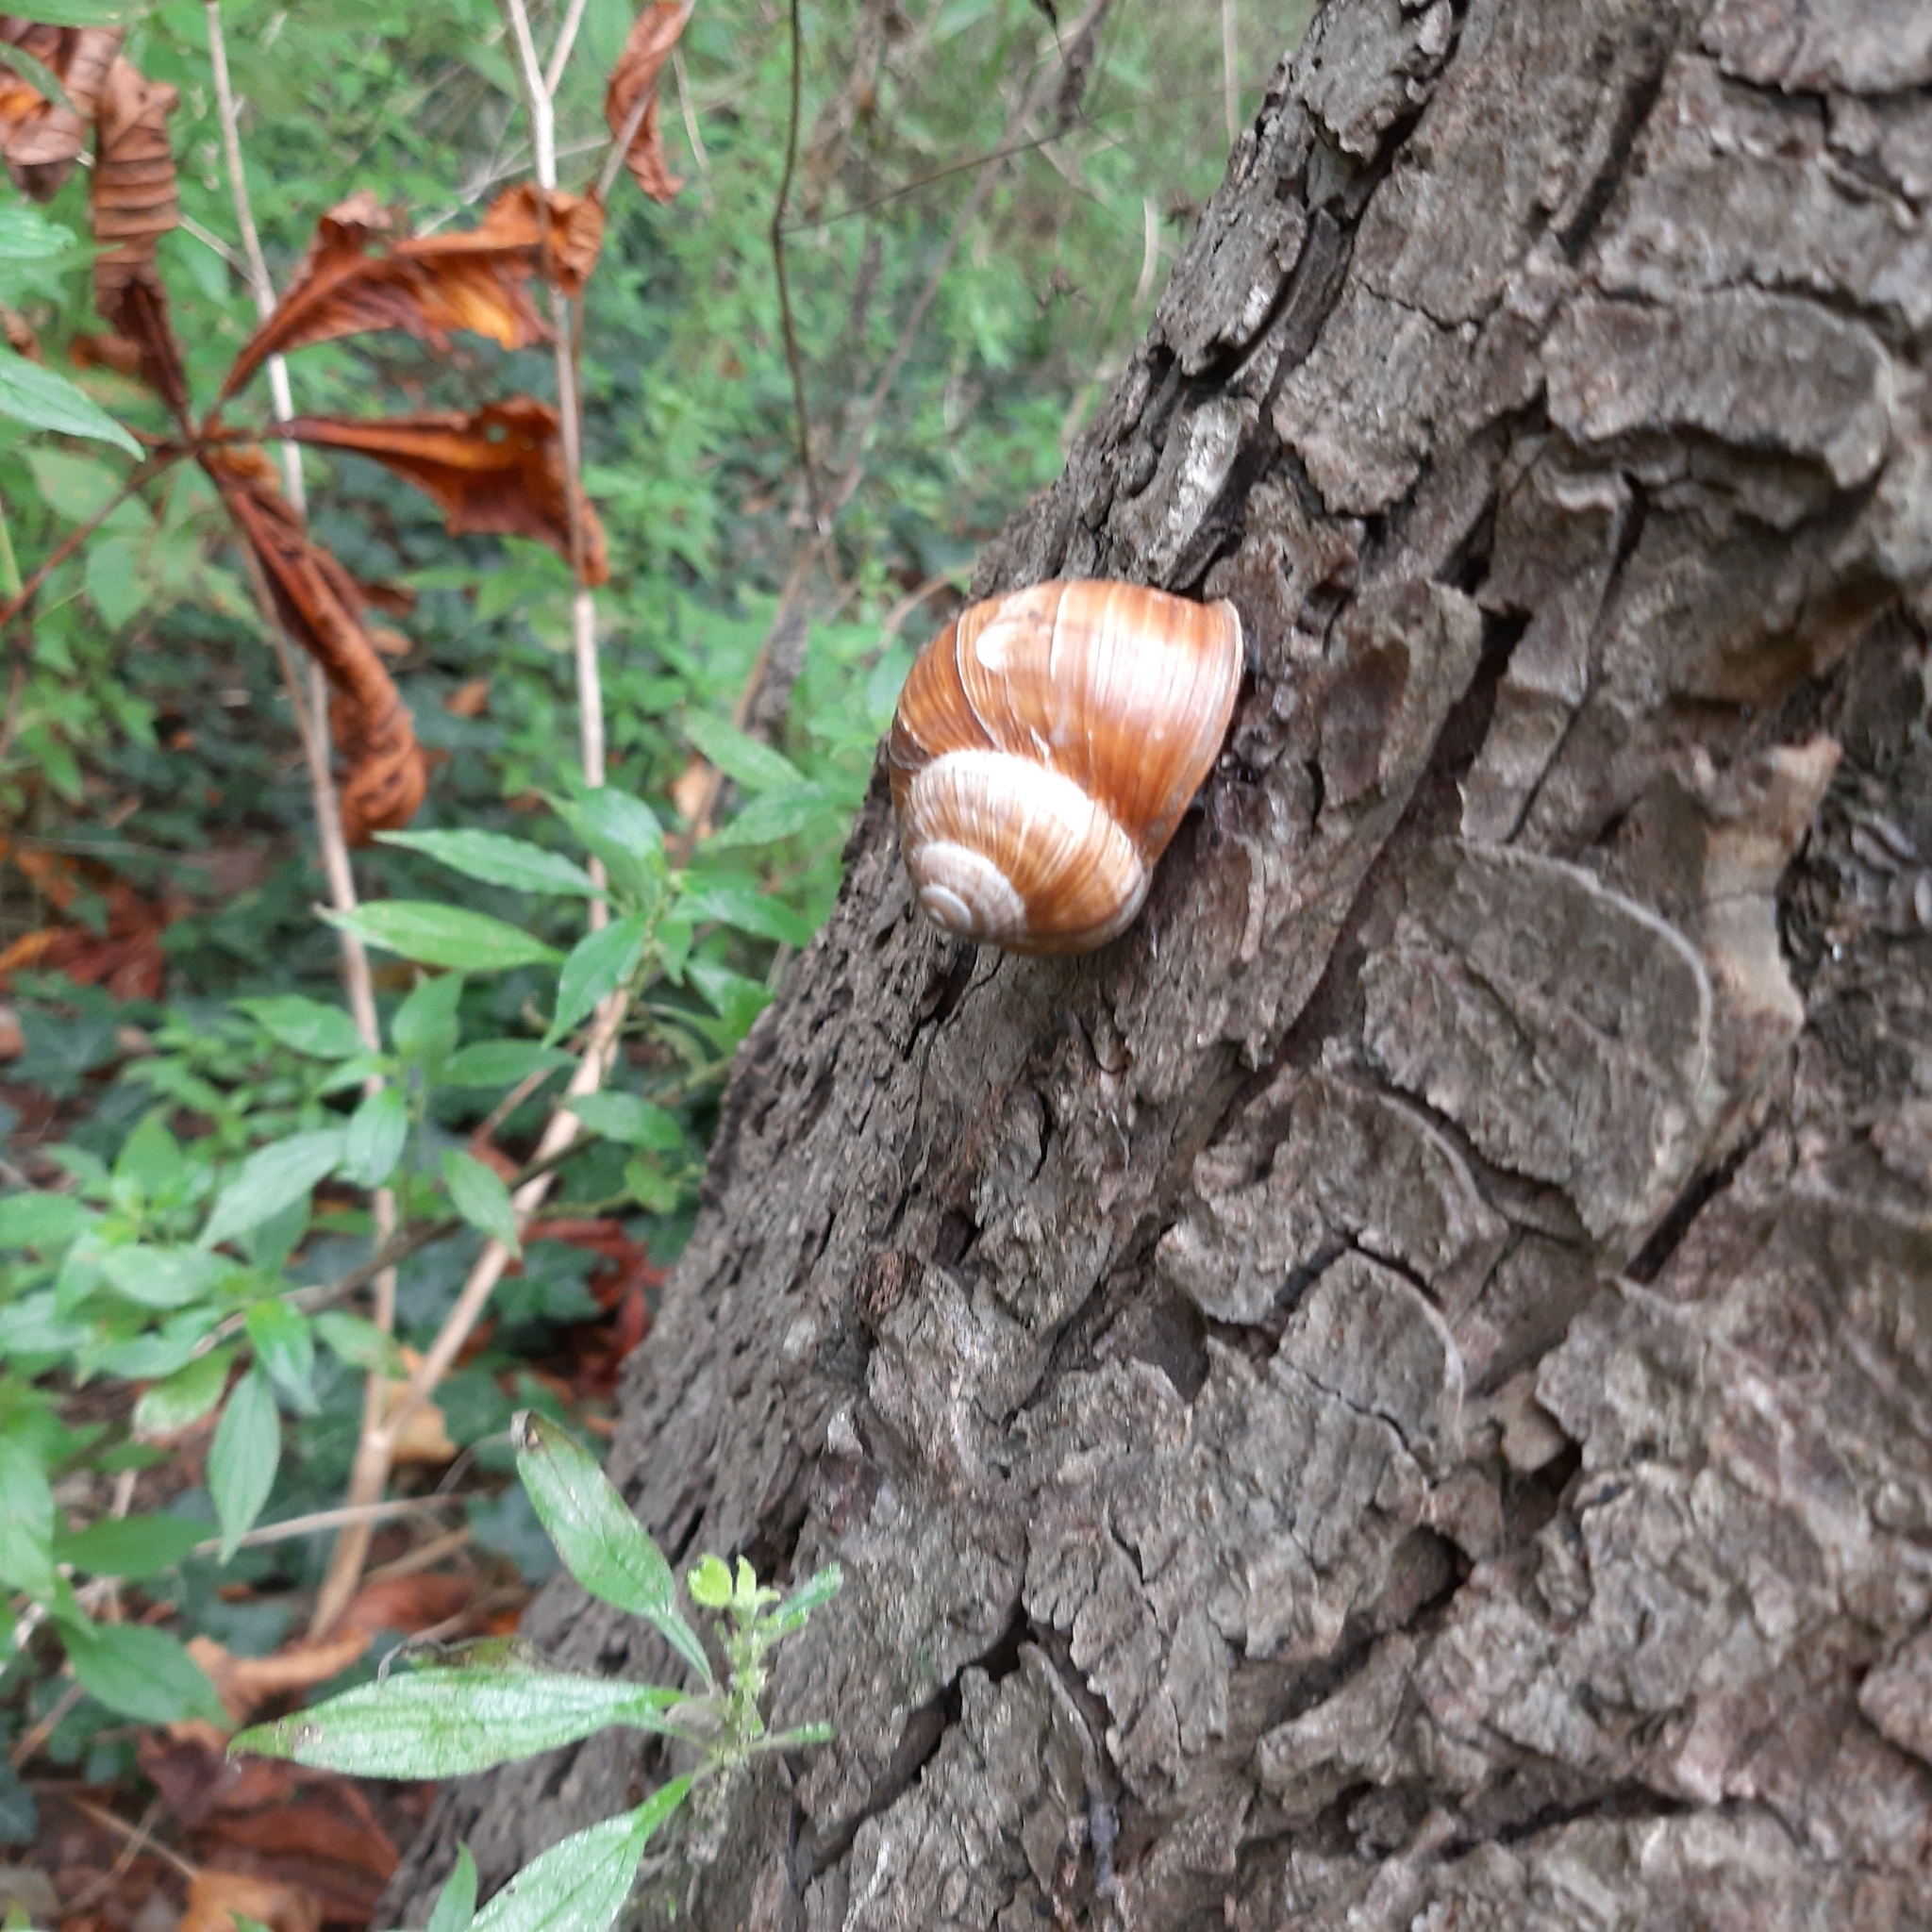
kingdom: Animalia
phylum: Mollusca
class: Gastropoda
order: Stylommatophora
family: Helicidae
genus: Helix
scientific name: Helix pomatia
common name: Roman snail
